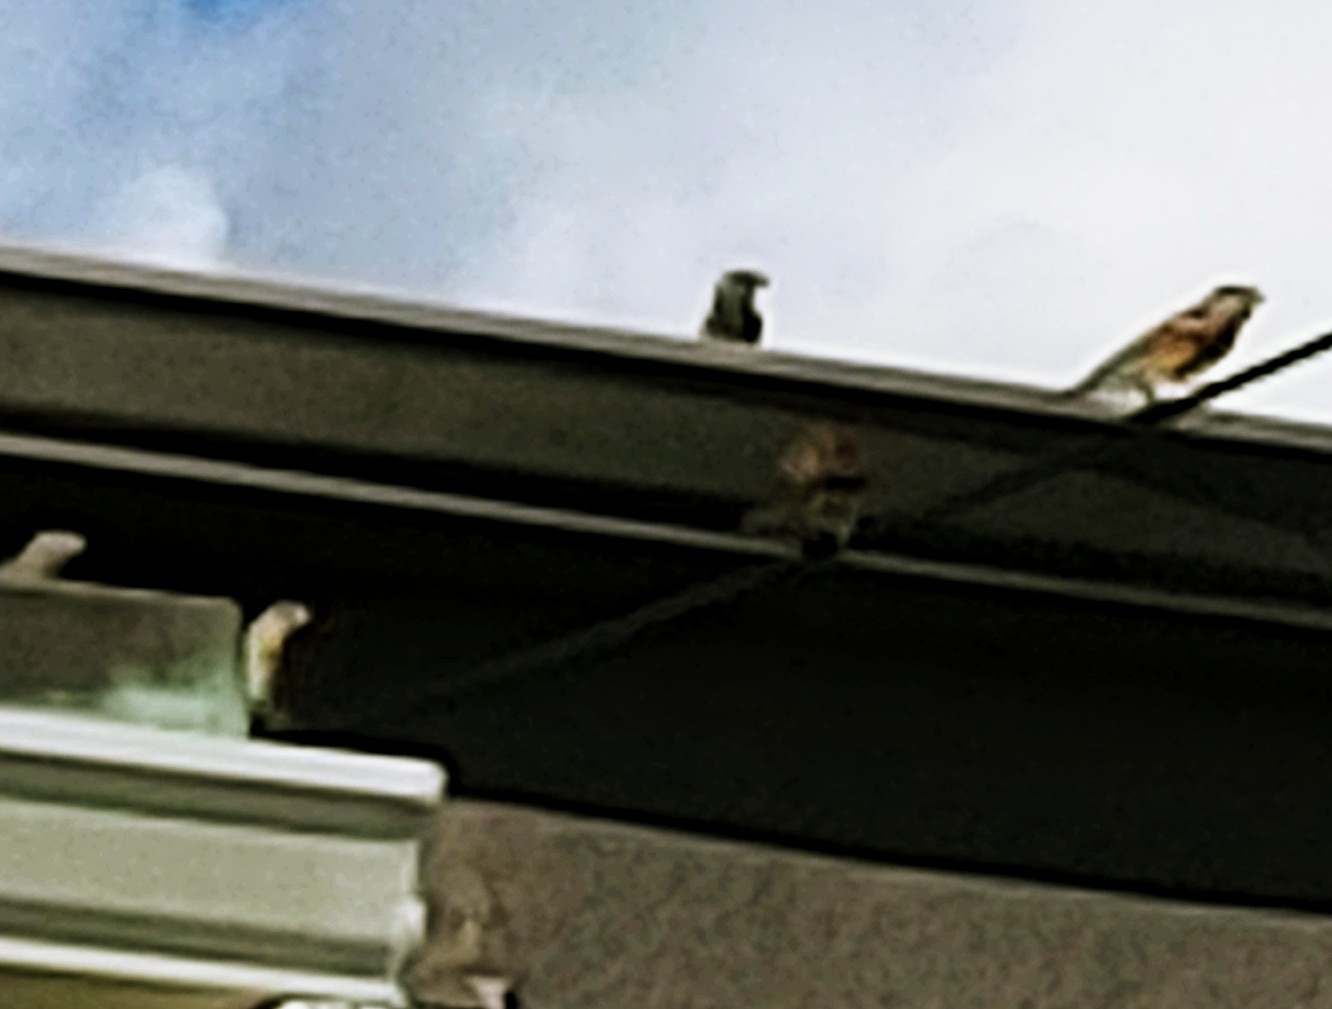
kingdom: Animalia
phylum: Chordata
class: Aves
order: Passeriformes
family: Passeridae
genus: Passer
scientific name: Passer domesticus
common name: House sparrow
